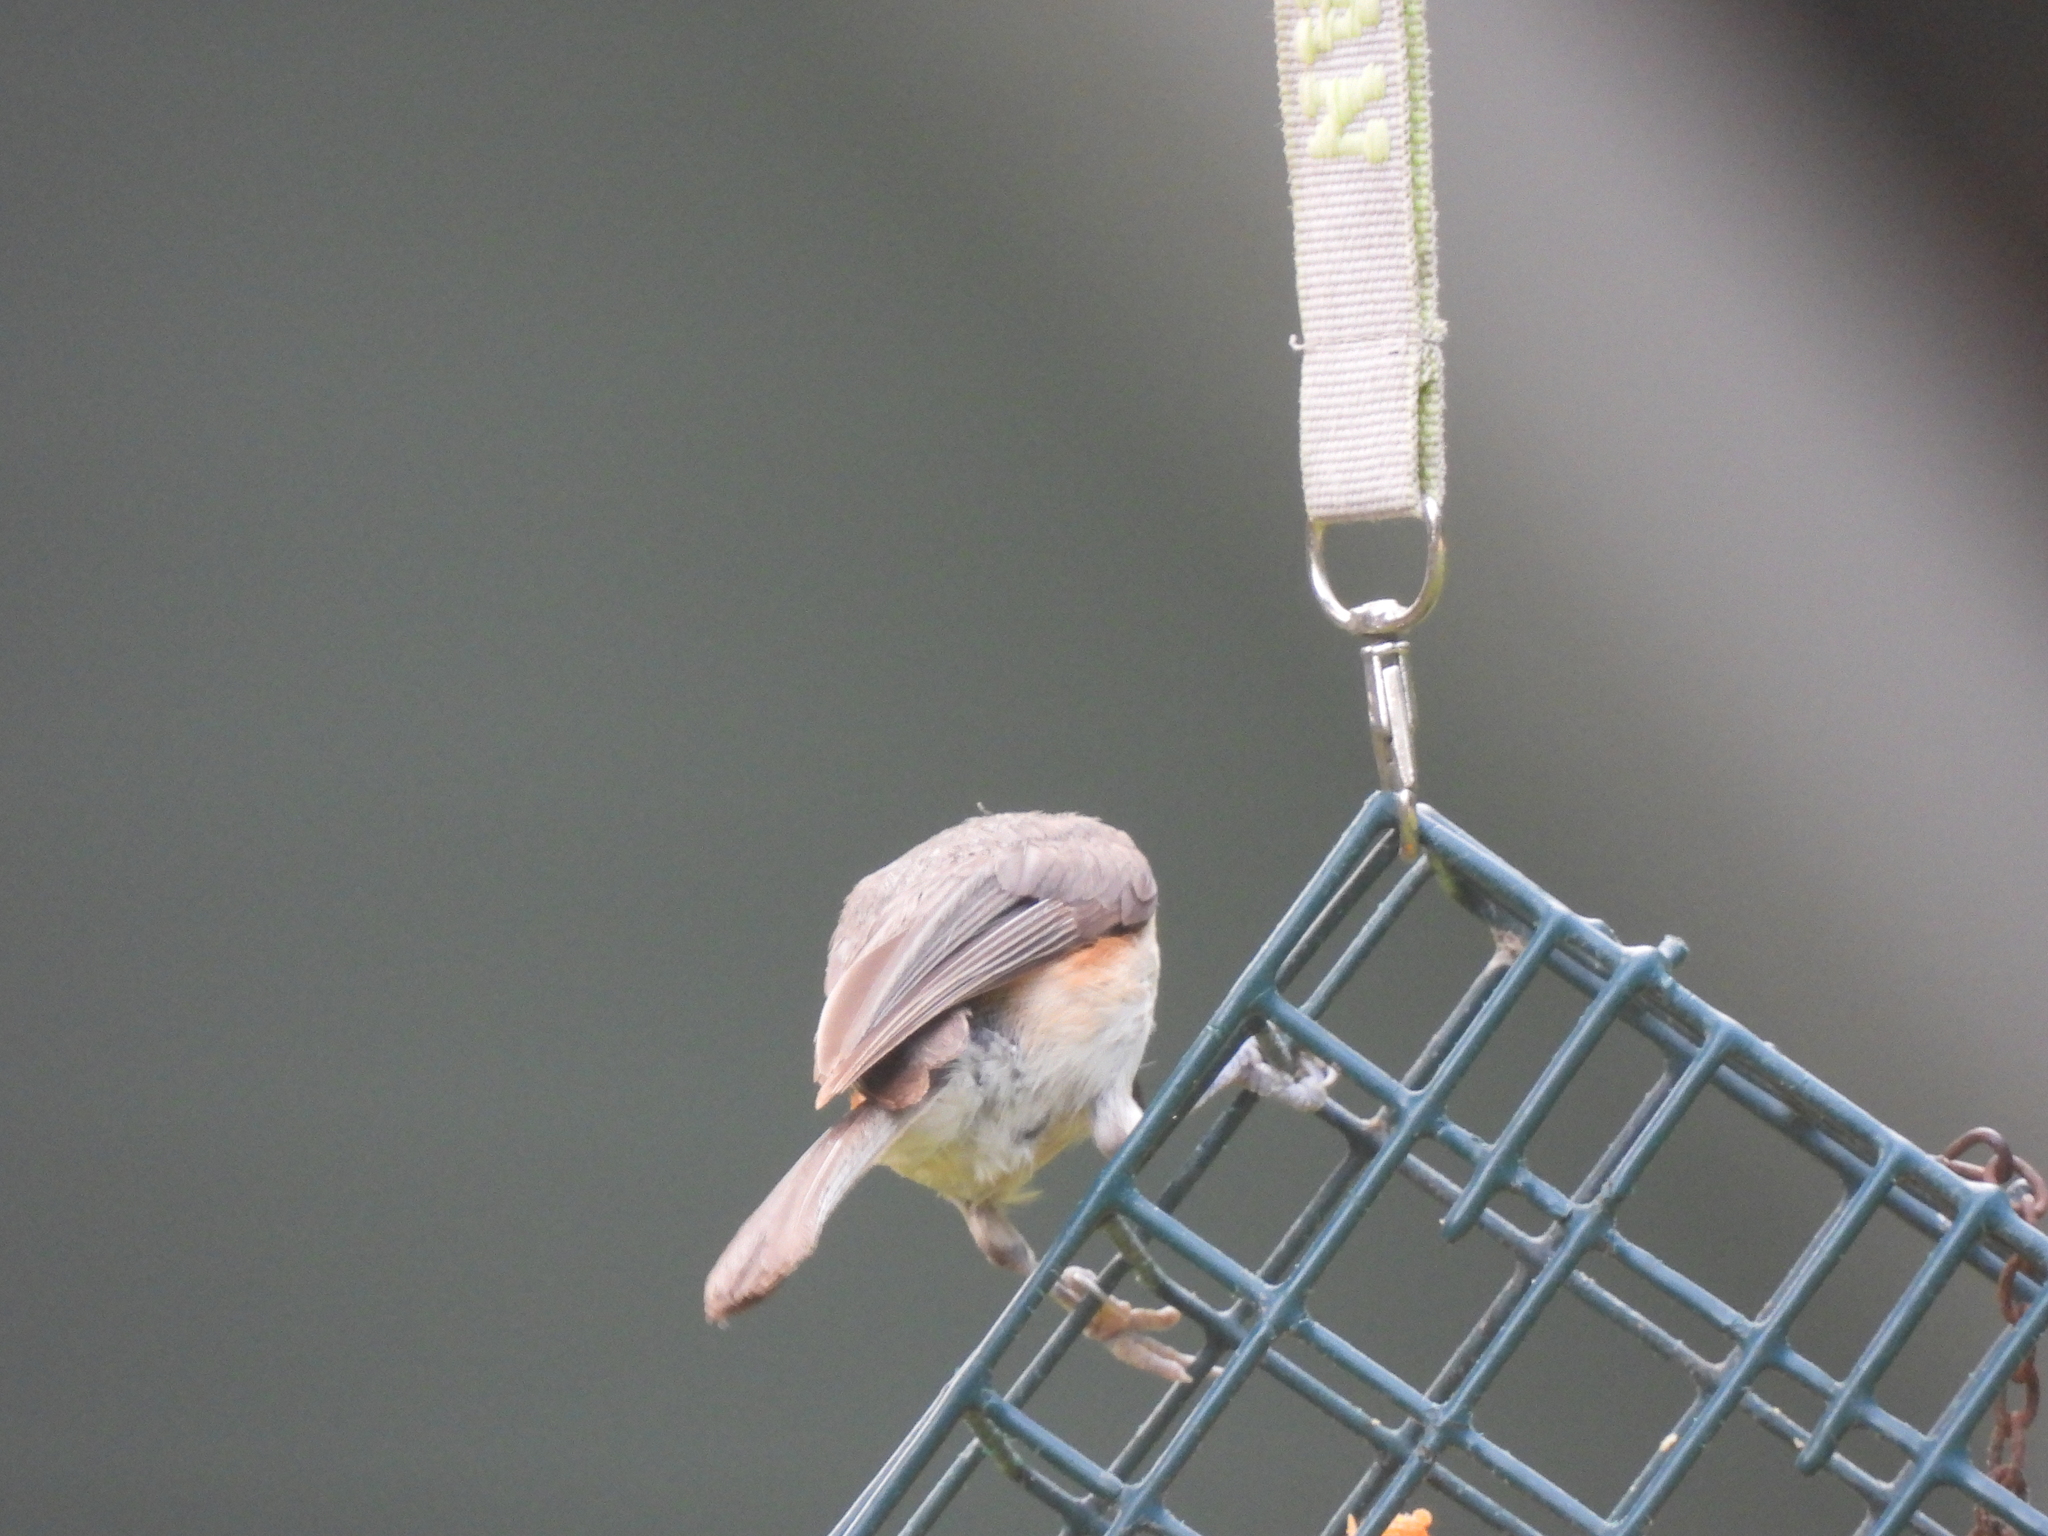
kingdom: Animalia
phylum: Chordata
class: Aves
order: Passeriformes
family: Paridae
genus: Baeolophus
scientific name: Baeolophus bicolor
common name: Tufted titmouse
